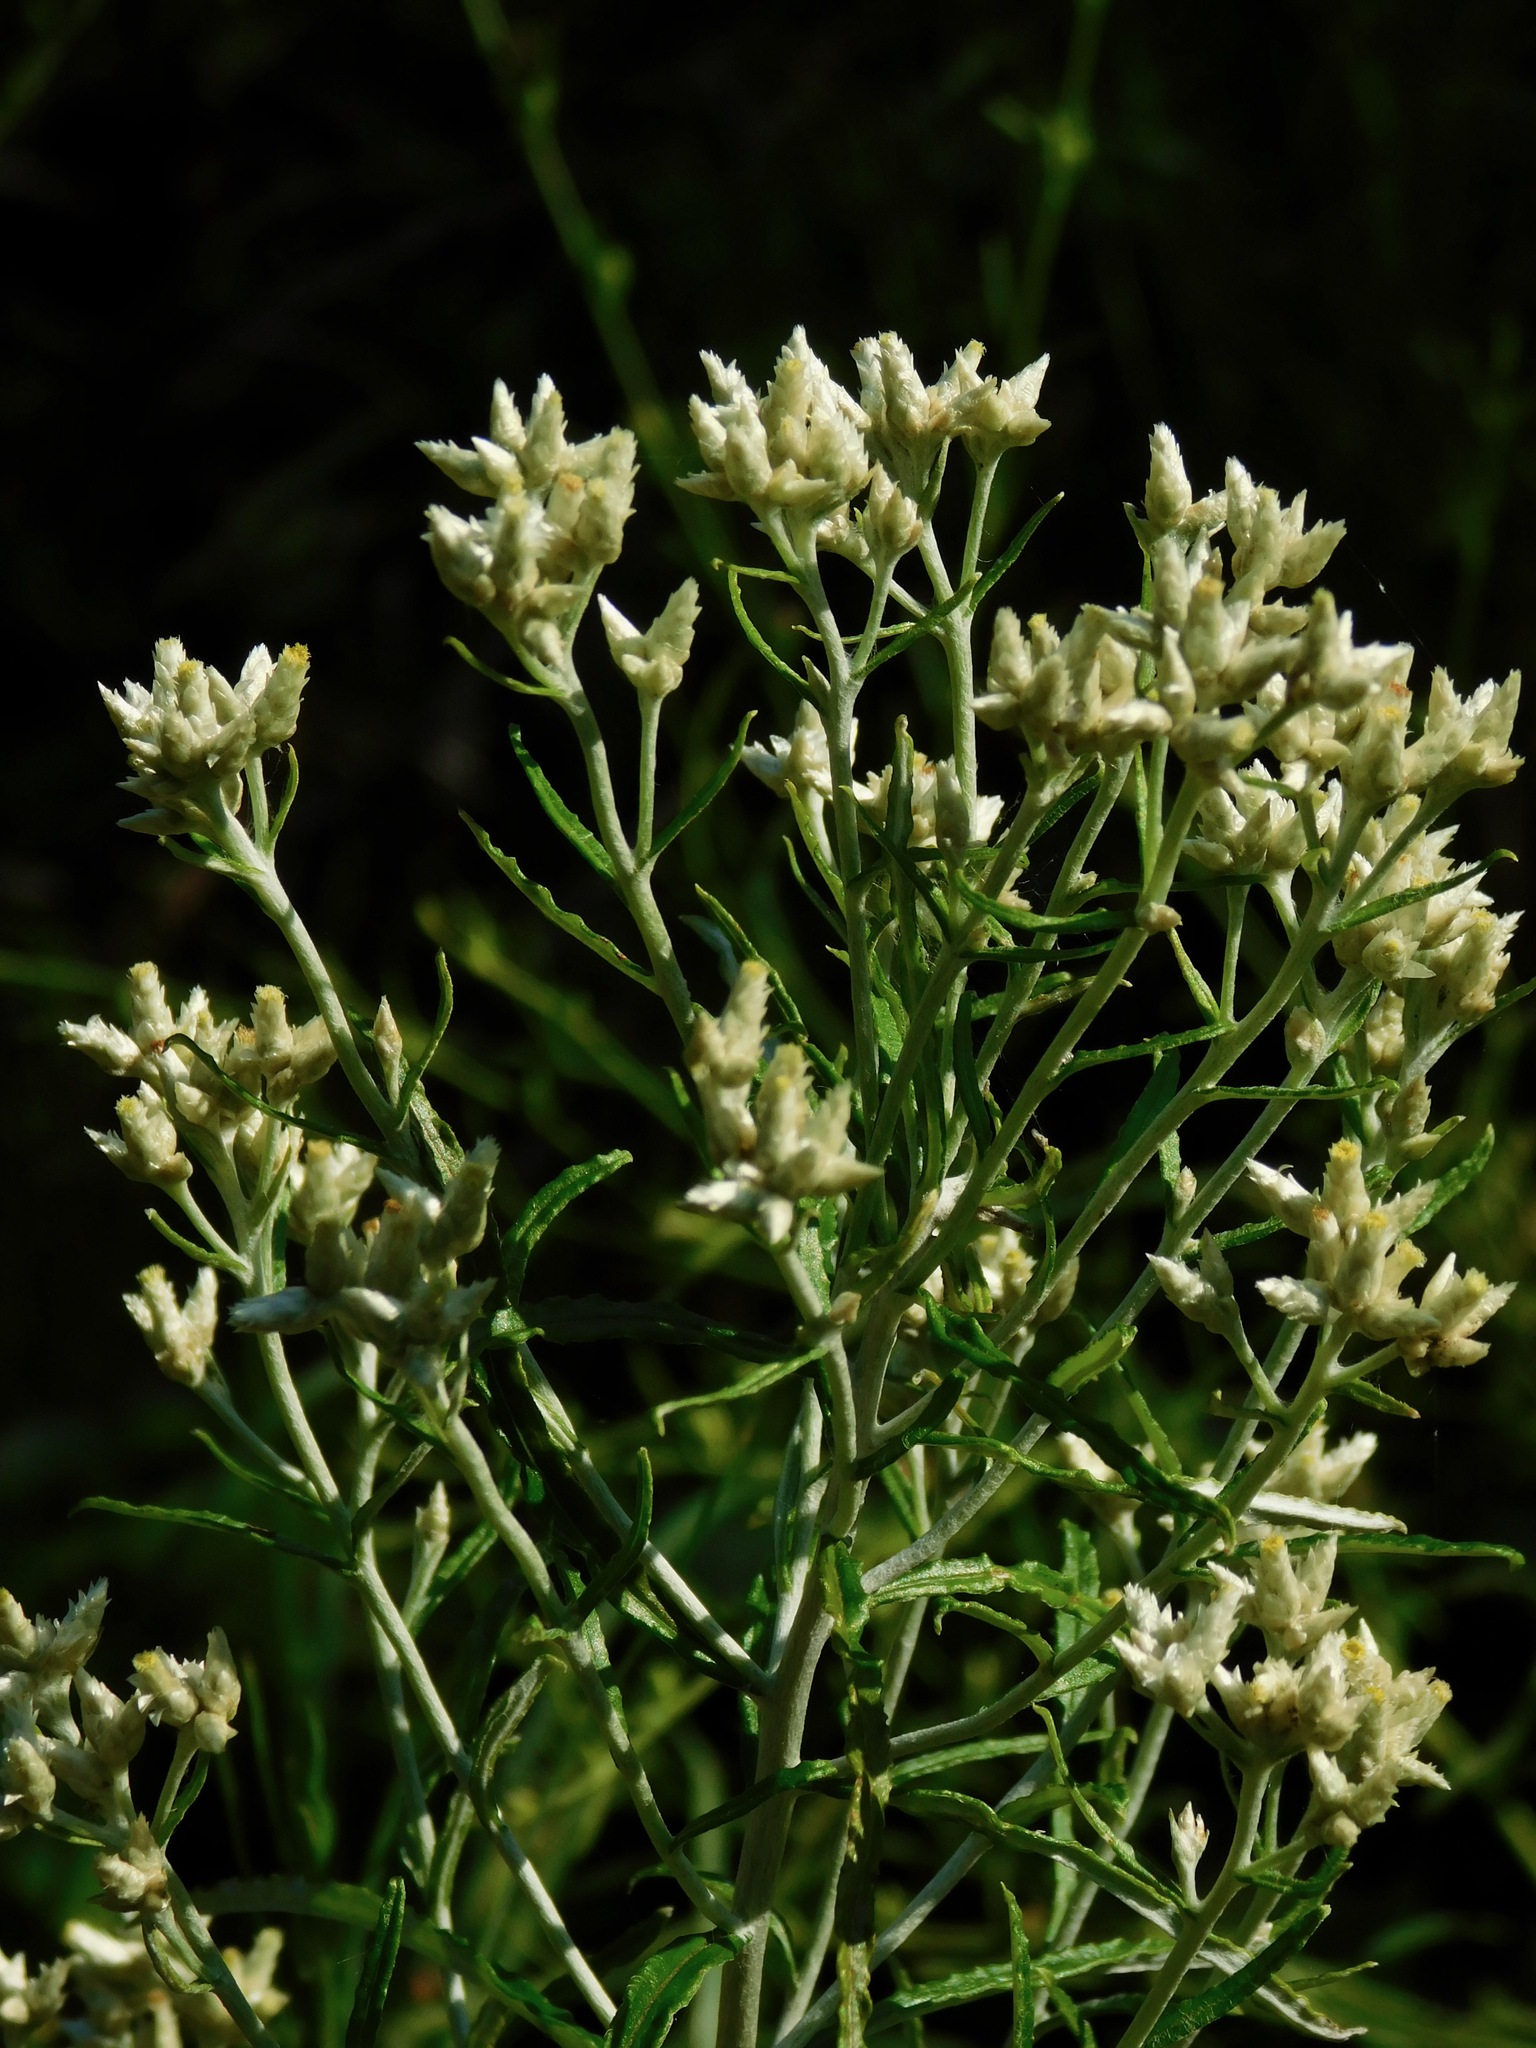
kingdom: Plantae
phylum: Tracheophyta
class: Magnoliopsida
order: Asterales
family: Asteraceae
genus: Pseudognaphalium
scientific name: Pseudognaphalium obtusifolium
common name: Eastern rabbit-tobacco
